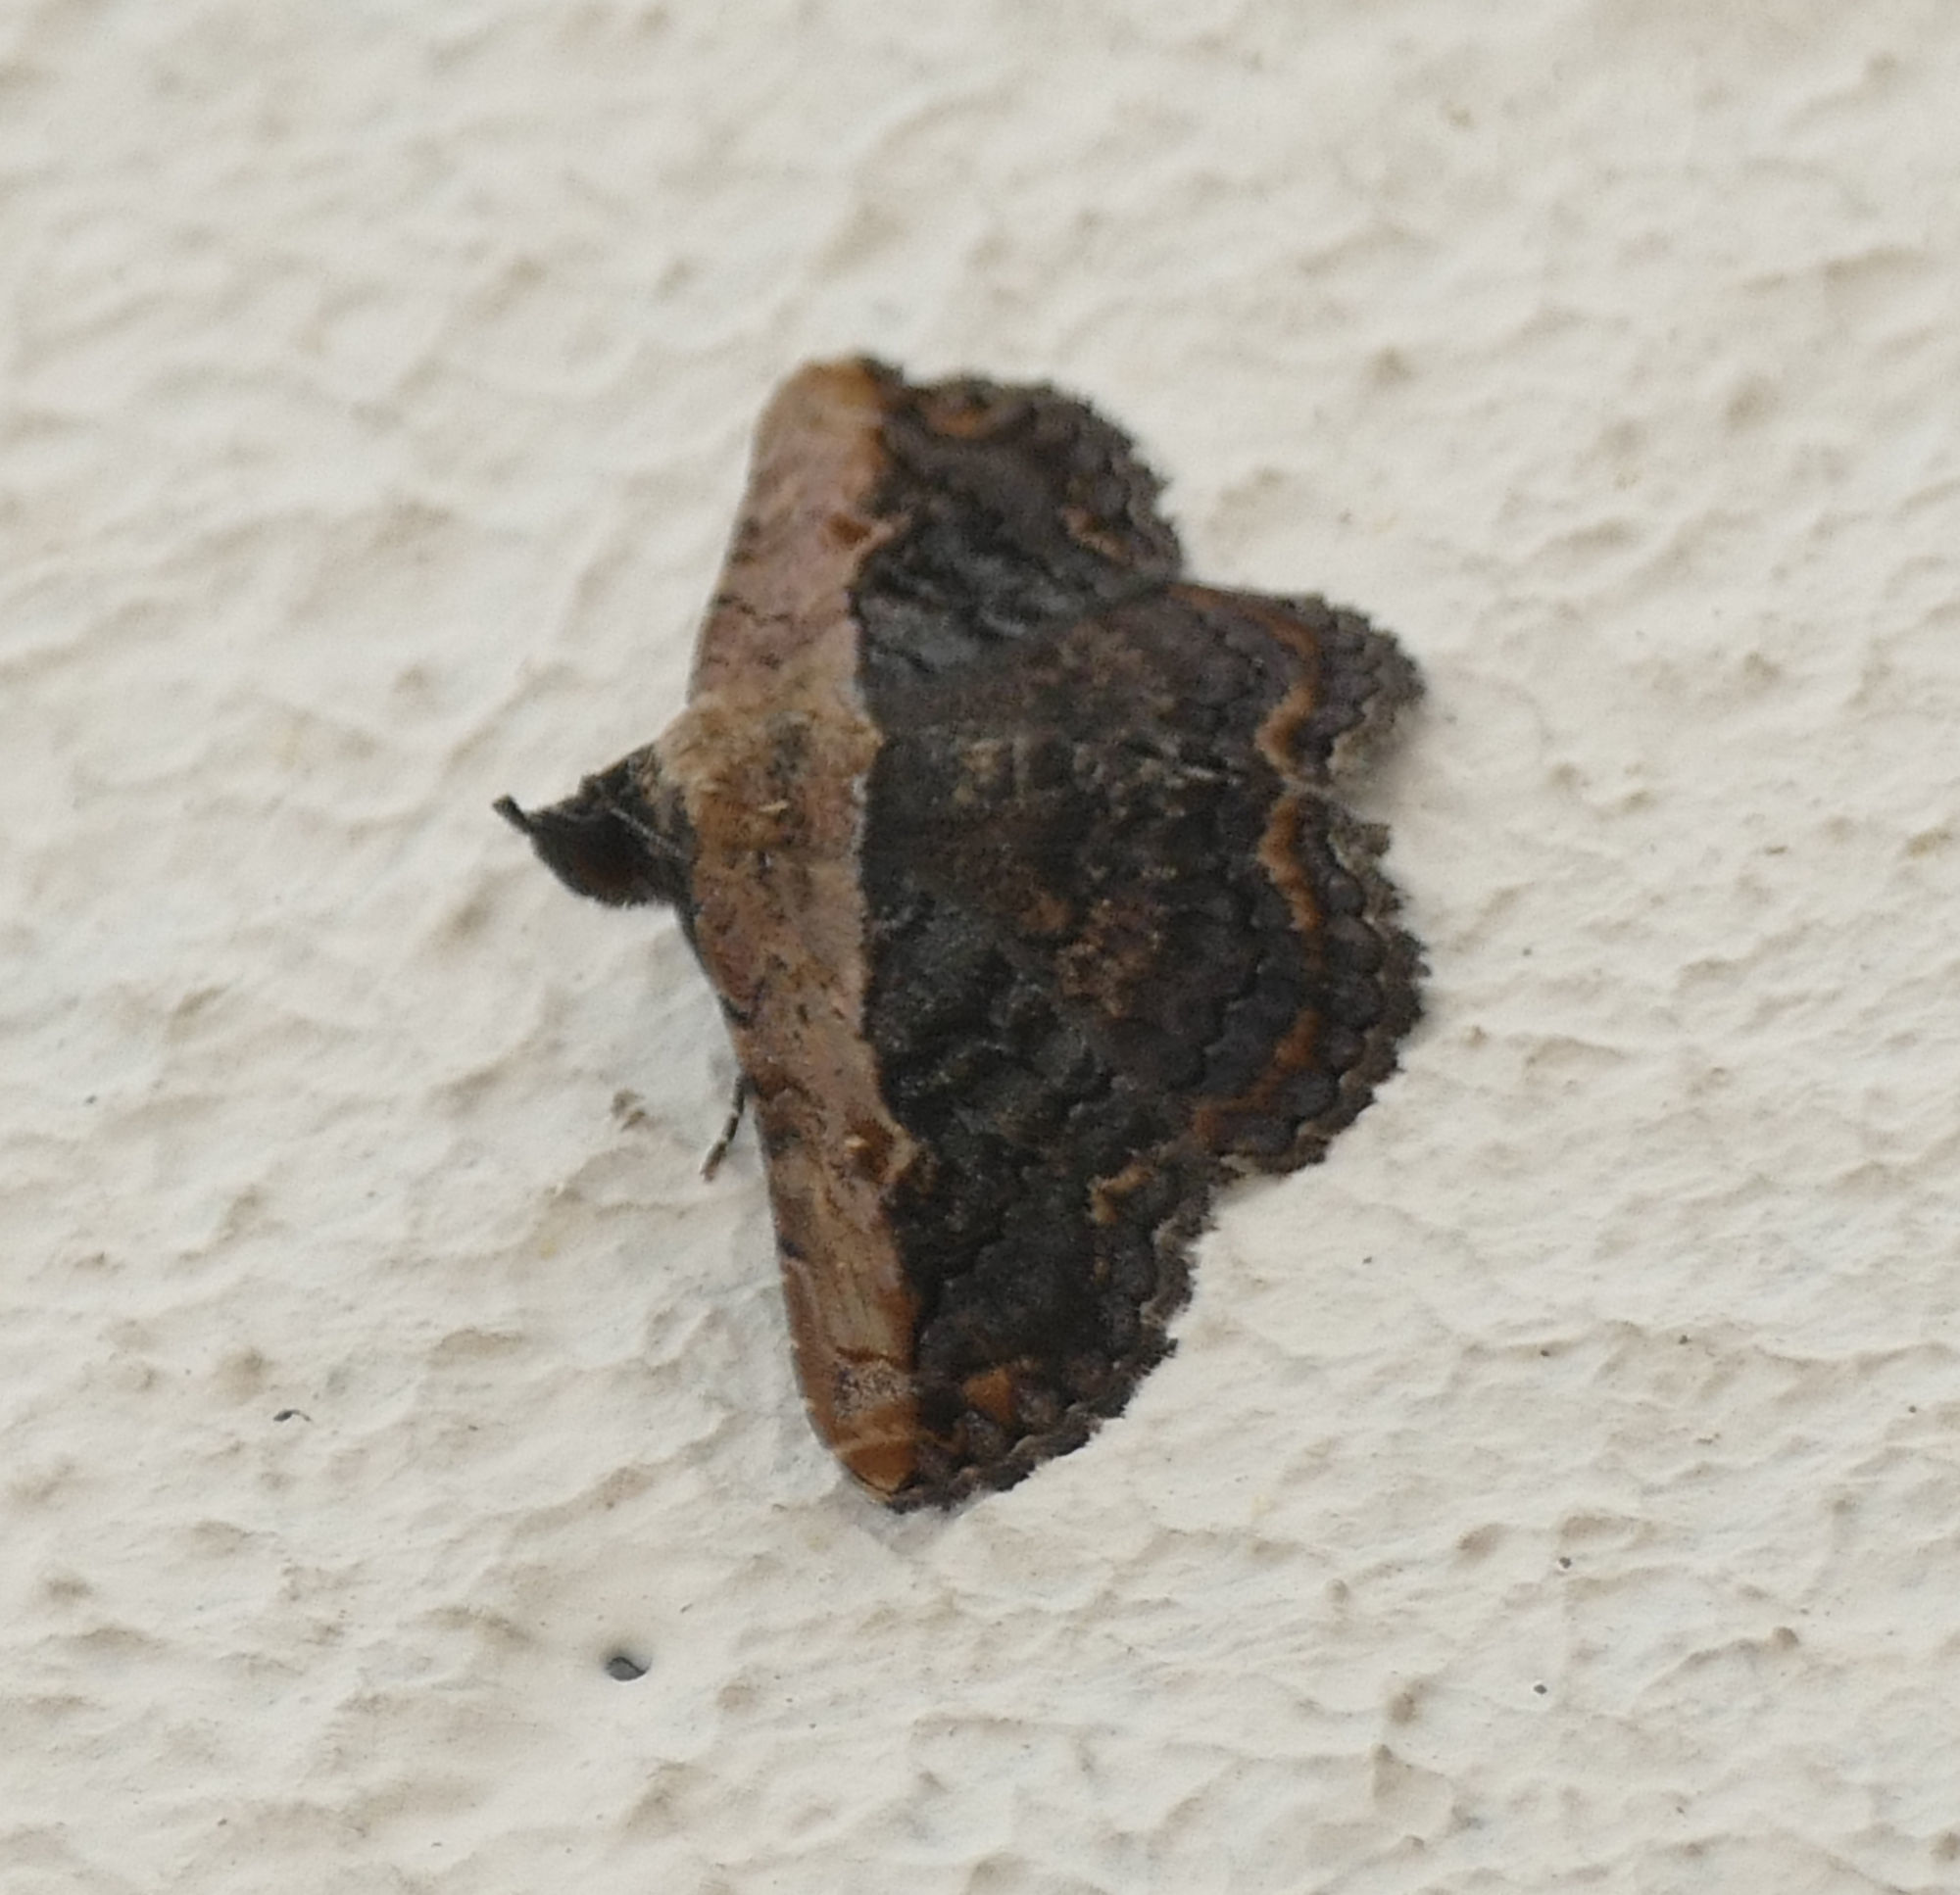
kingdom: Animalia
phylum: Arthropoda
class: Insecta
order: Lepidoptera
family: Erebidae
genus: Selenisa
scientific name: Selenisa sueroides
